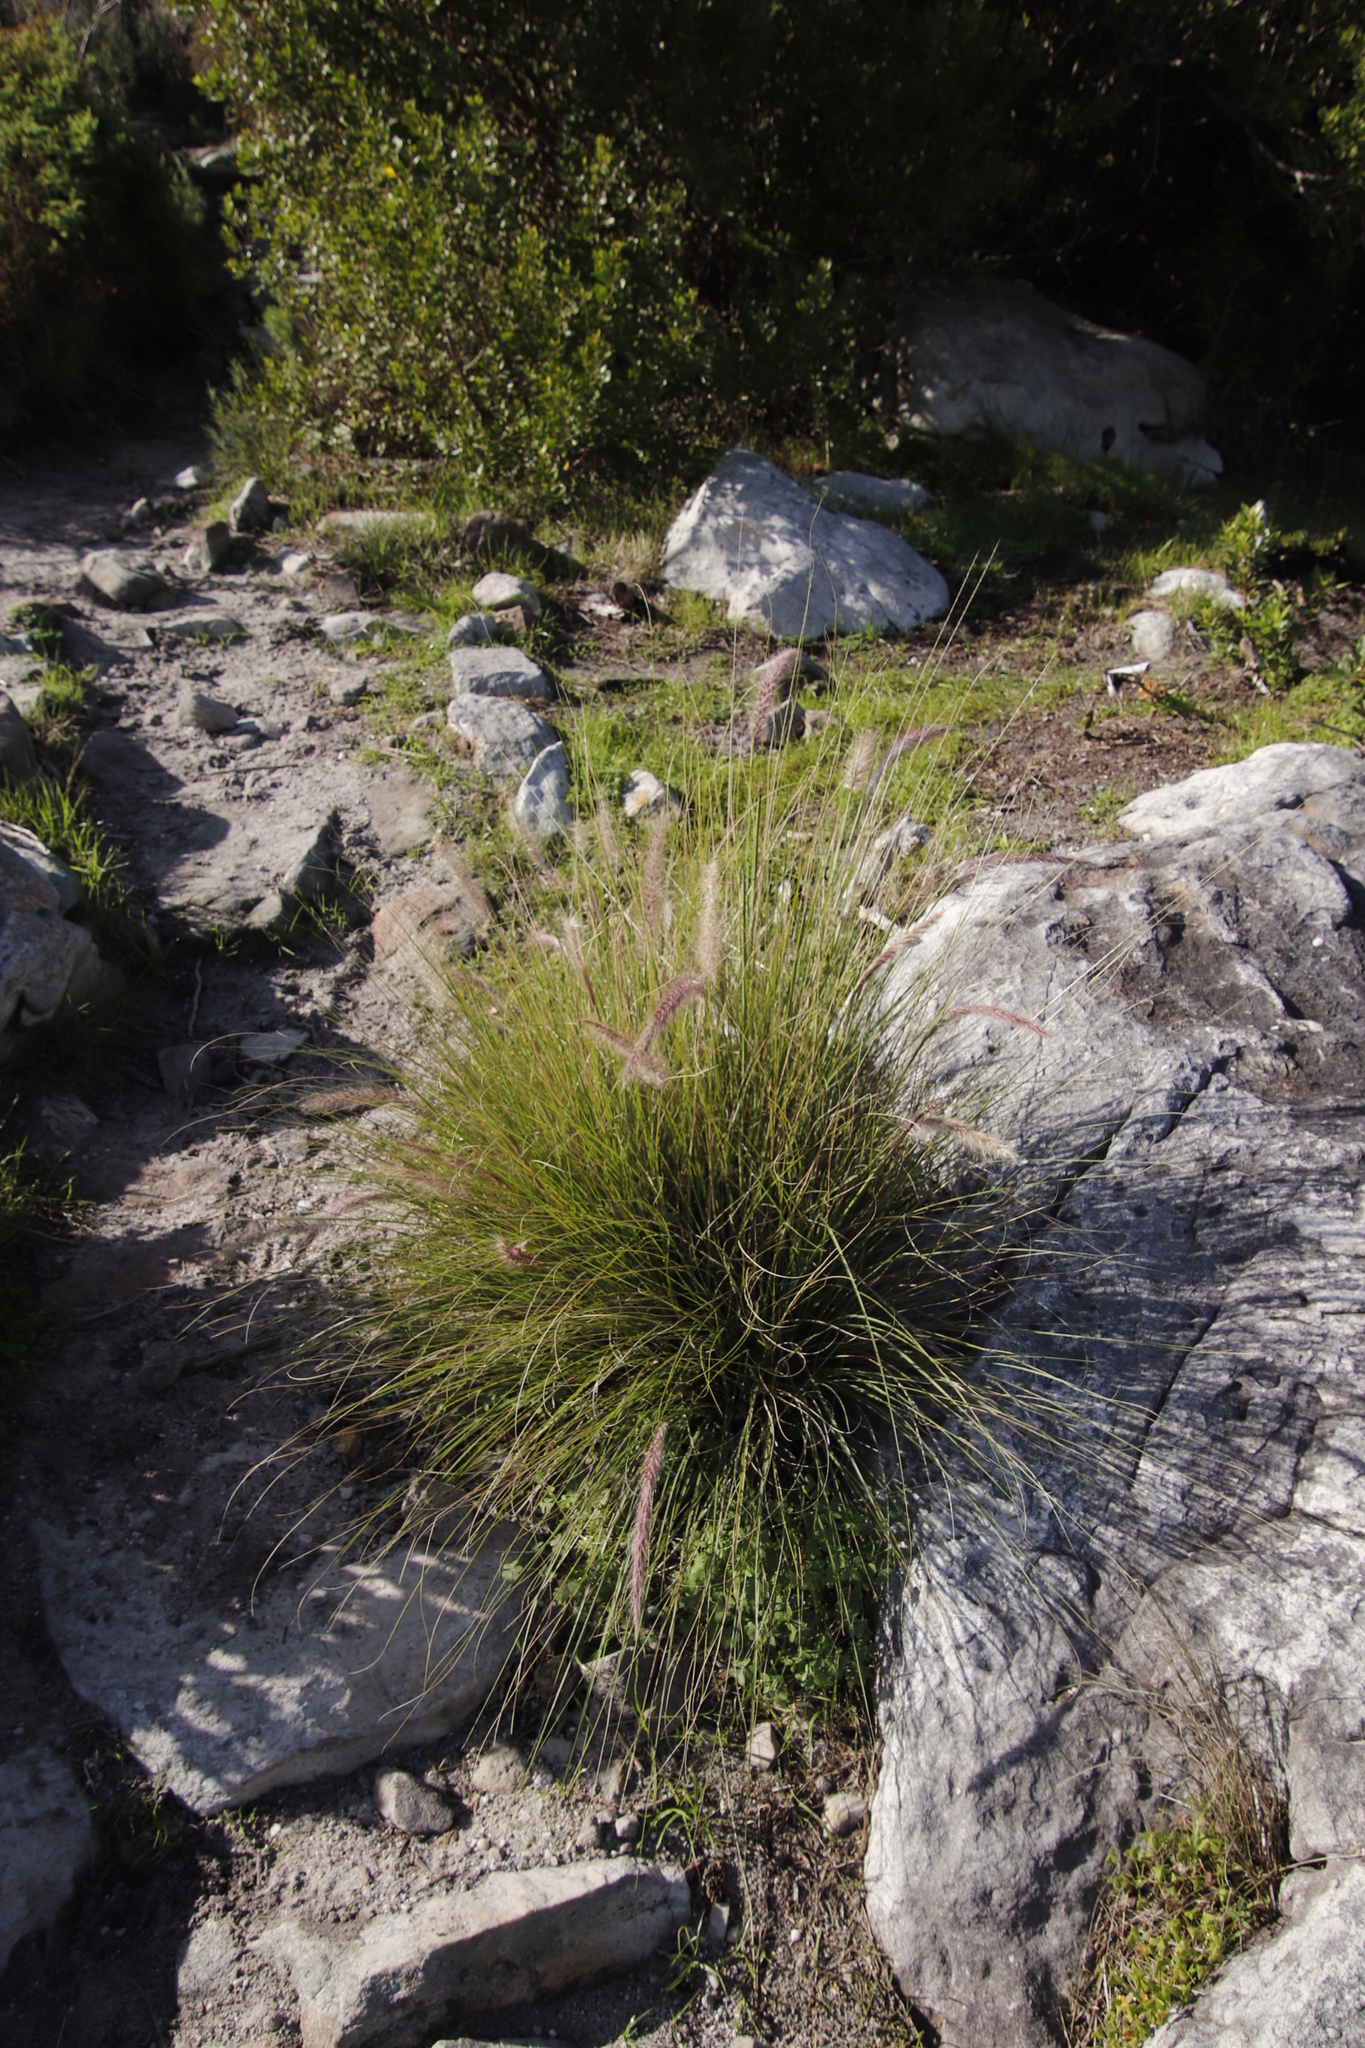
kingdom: Plantae
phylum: Tracheophyta
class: Liliopsida
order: Poales
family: Poaceae
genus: Cenchrus
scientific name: Cenchrus setaceus
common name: Crimson fountaingrass
